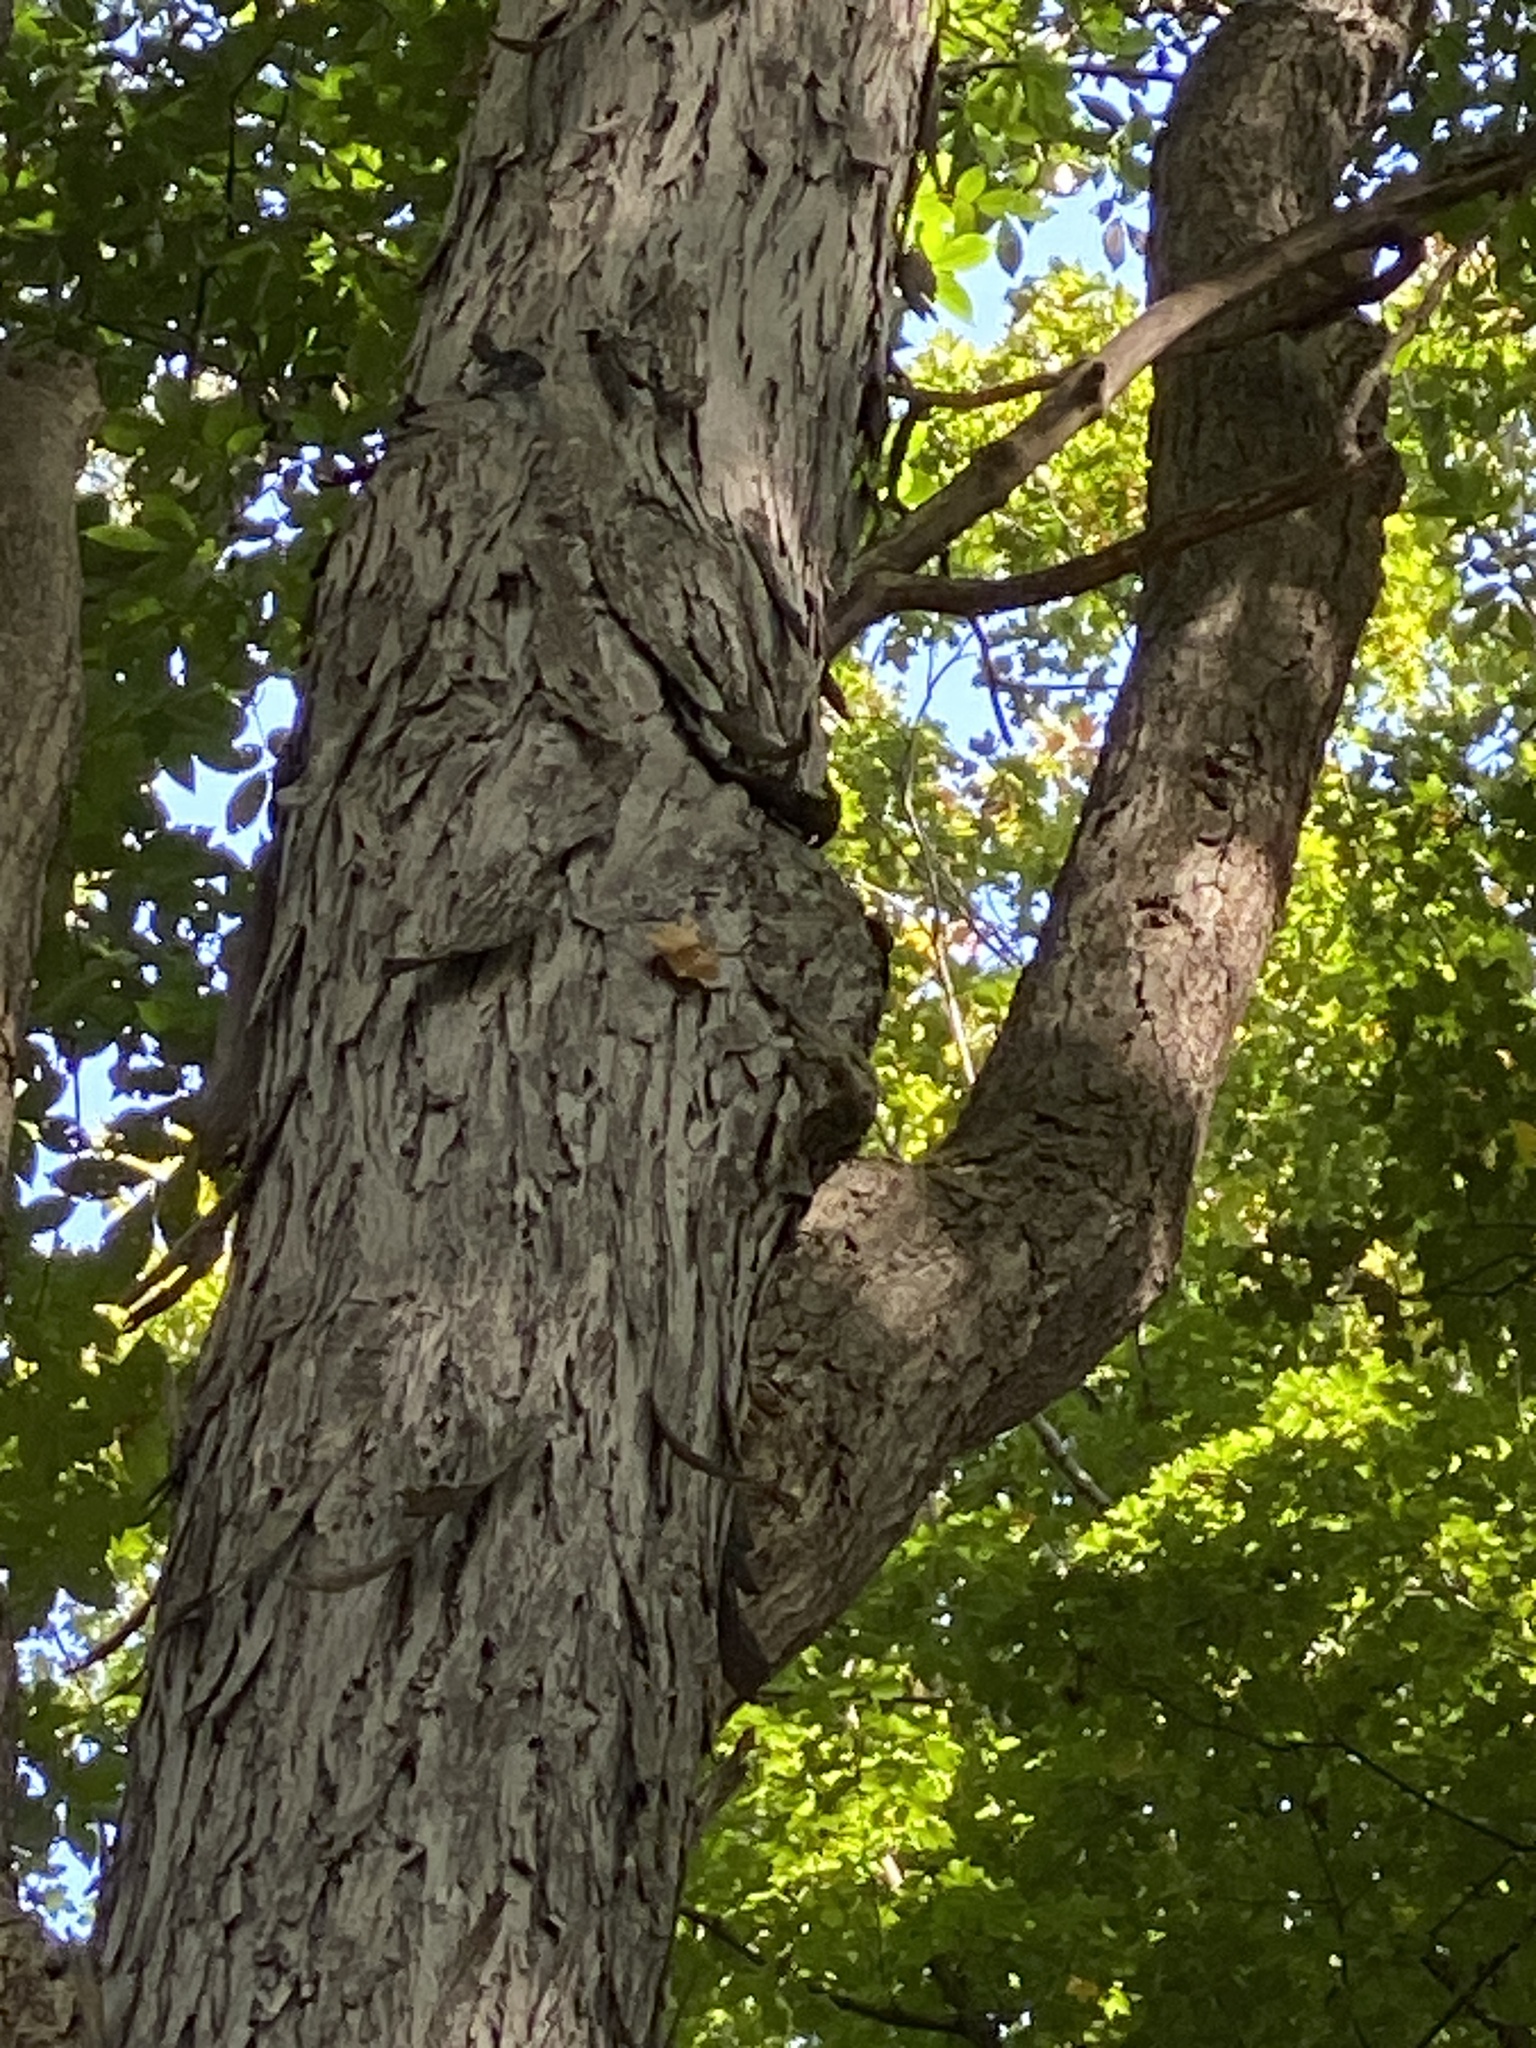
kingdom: Plantae
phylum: Tracheophyta
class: Magnoliopsida
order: Fagales
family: Juglandaceae
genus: Carya
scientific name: Carya ovata
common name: Shagbark hickory
